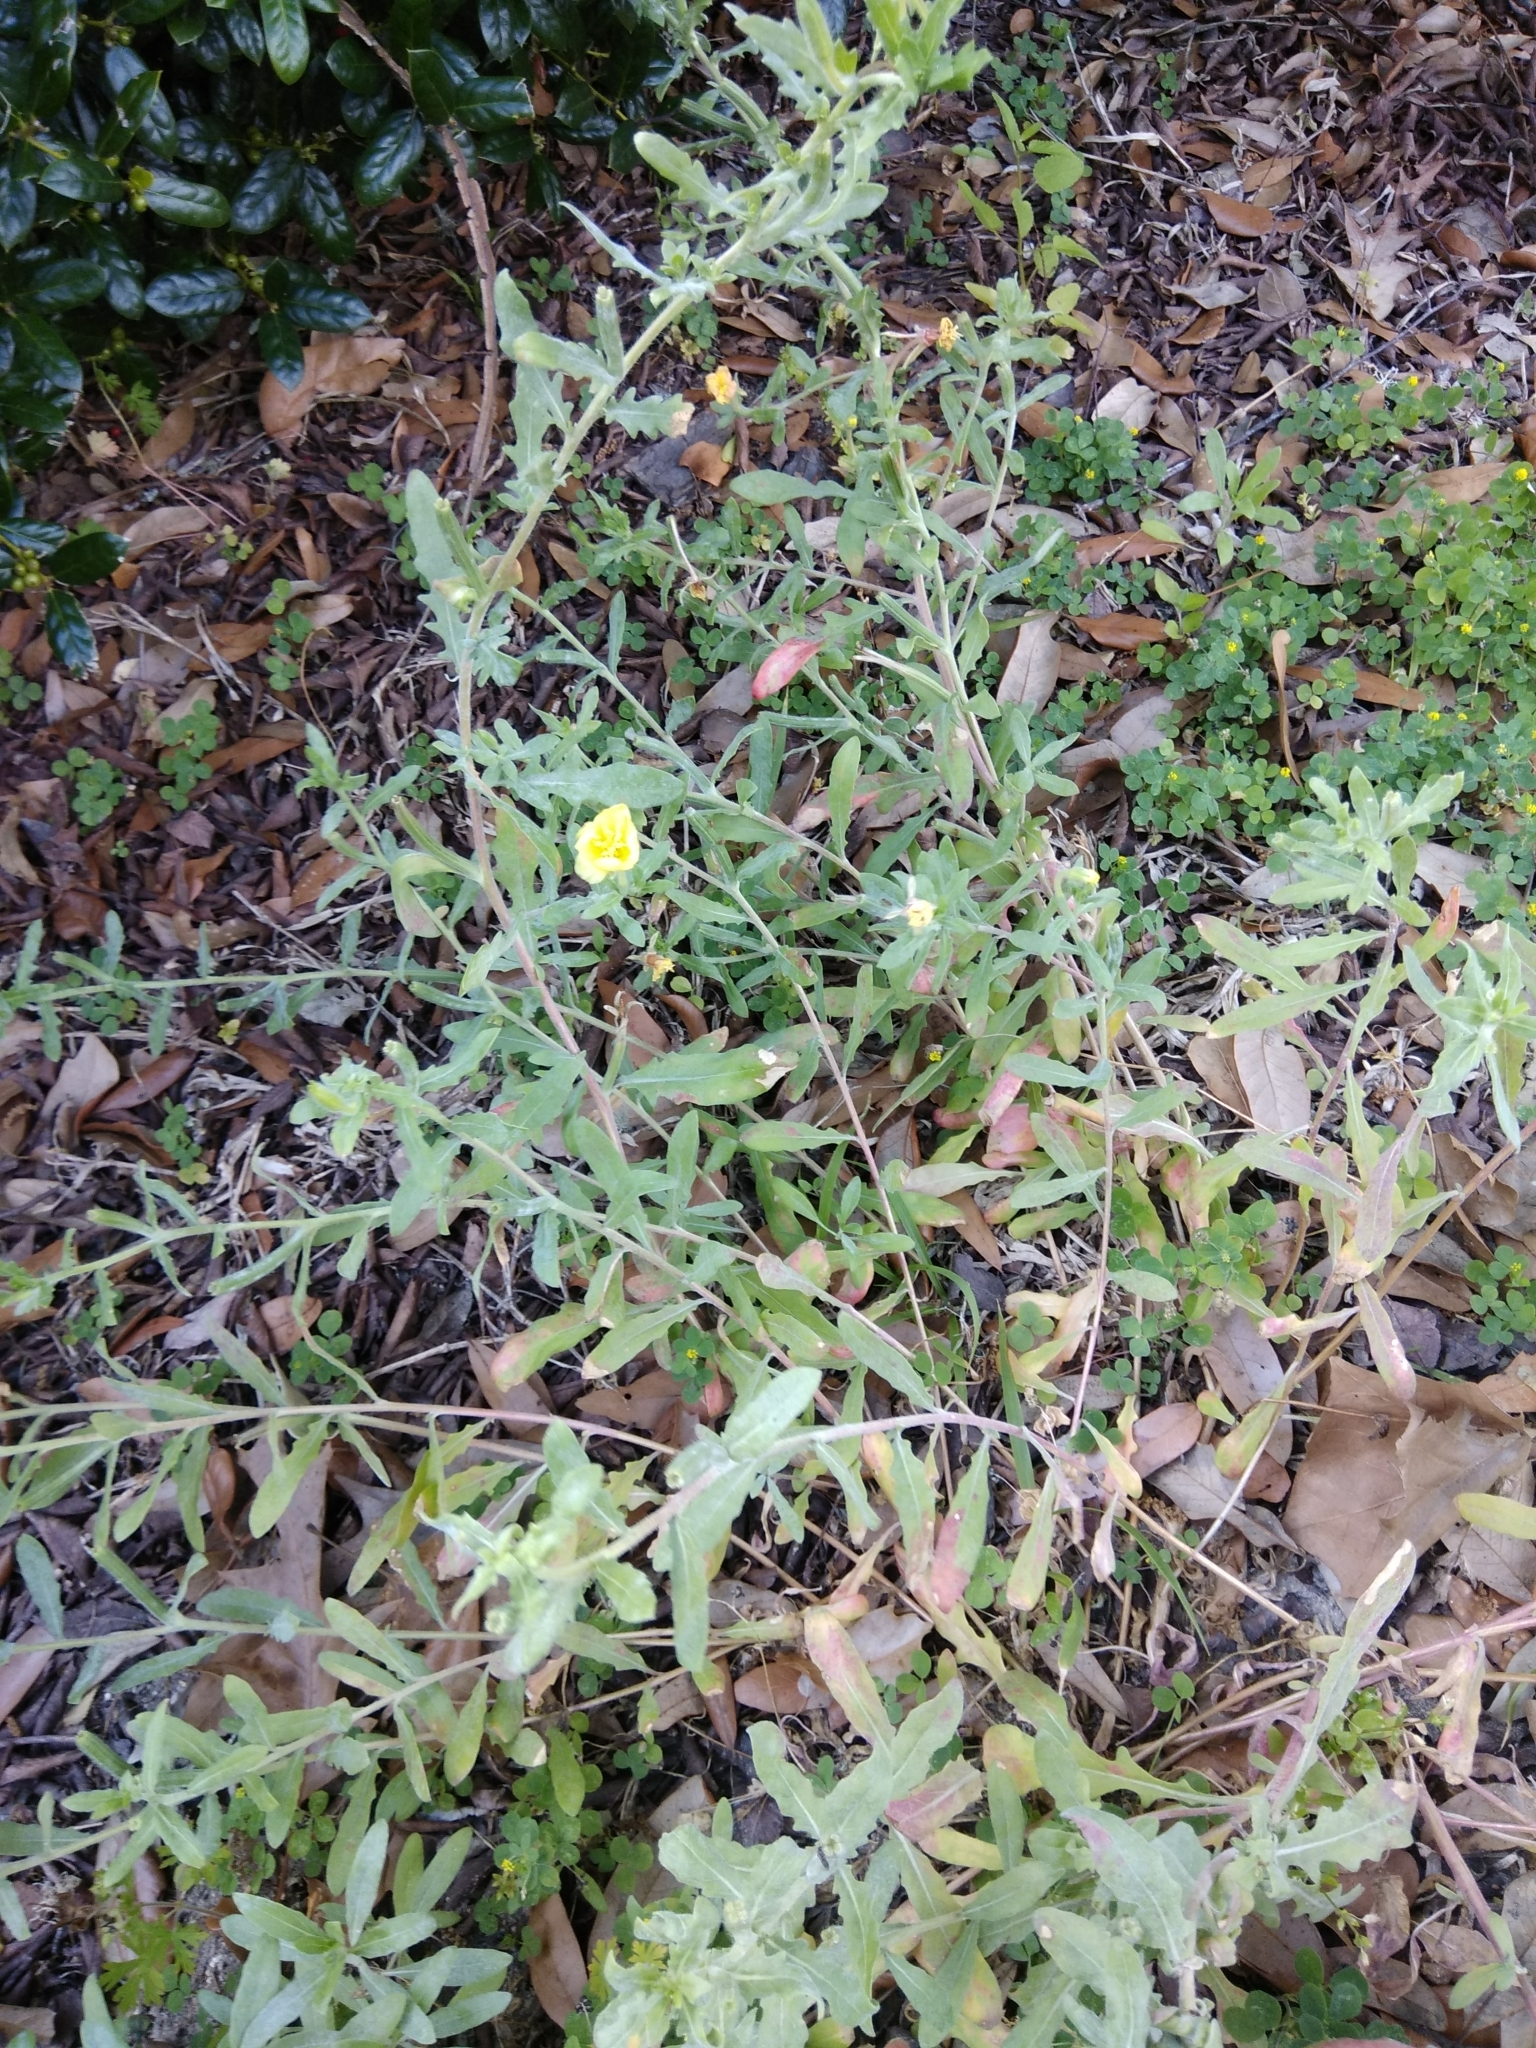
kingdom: Plantae
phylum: Tracheophyta
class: Magnoliopsida
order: Myrtales
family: Onagraceae
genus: Oenothera
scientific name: Oenothera laciniata
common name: Cut-leaved evening-primrose
